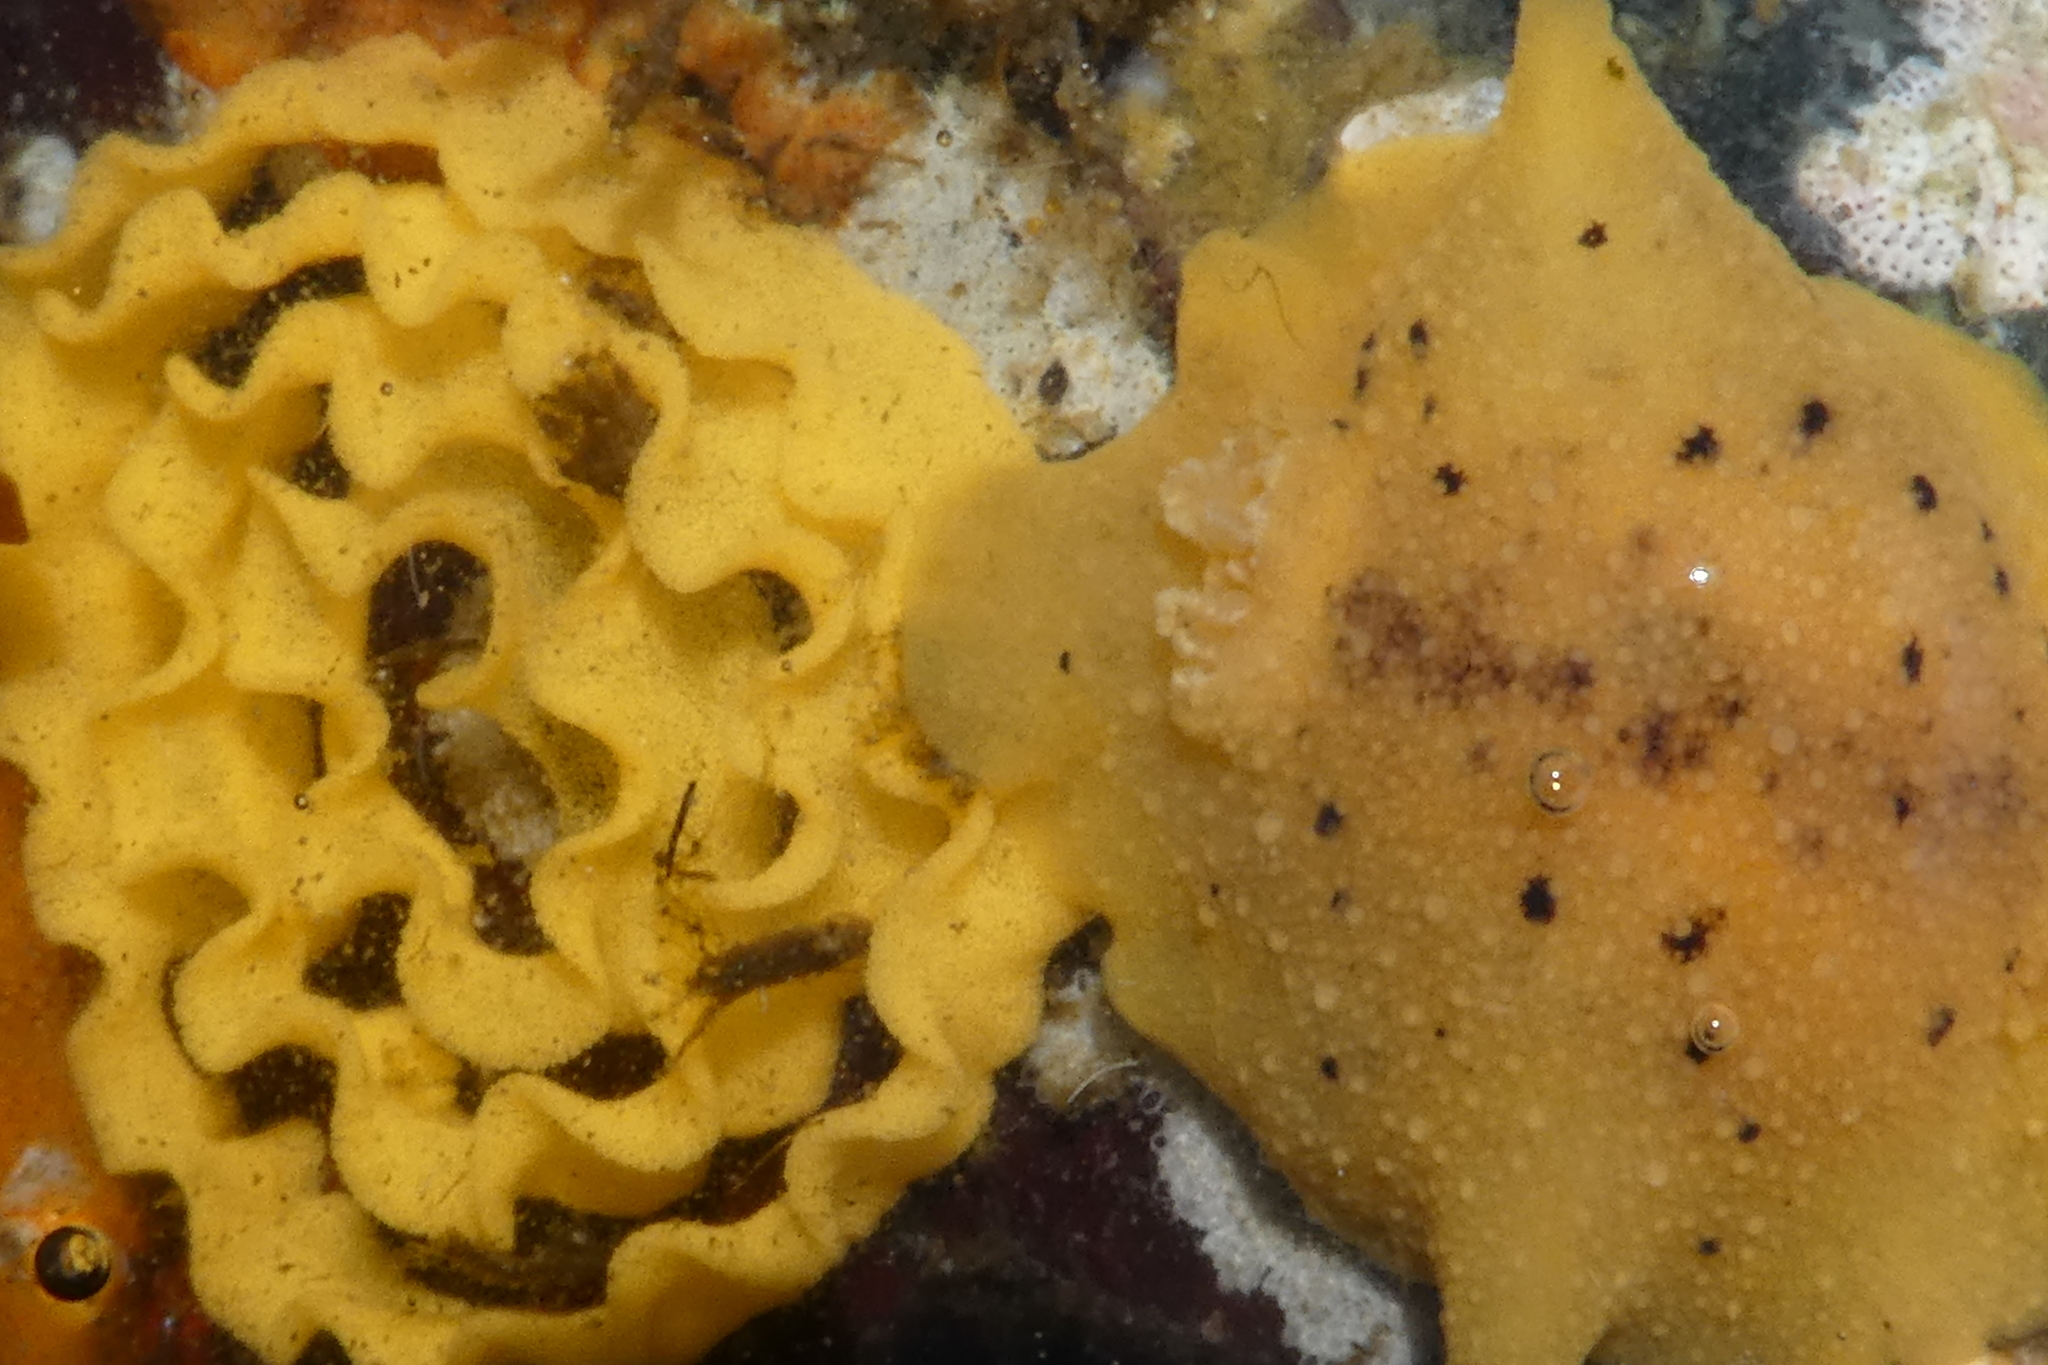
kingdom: Animalia
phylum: Mollusca
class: Gastropoda
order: Nudibranchia
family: Discodorididae
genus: Geitodoris
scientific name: Geitodoris heathi
